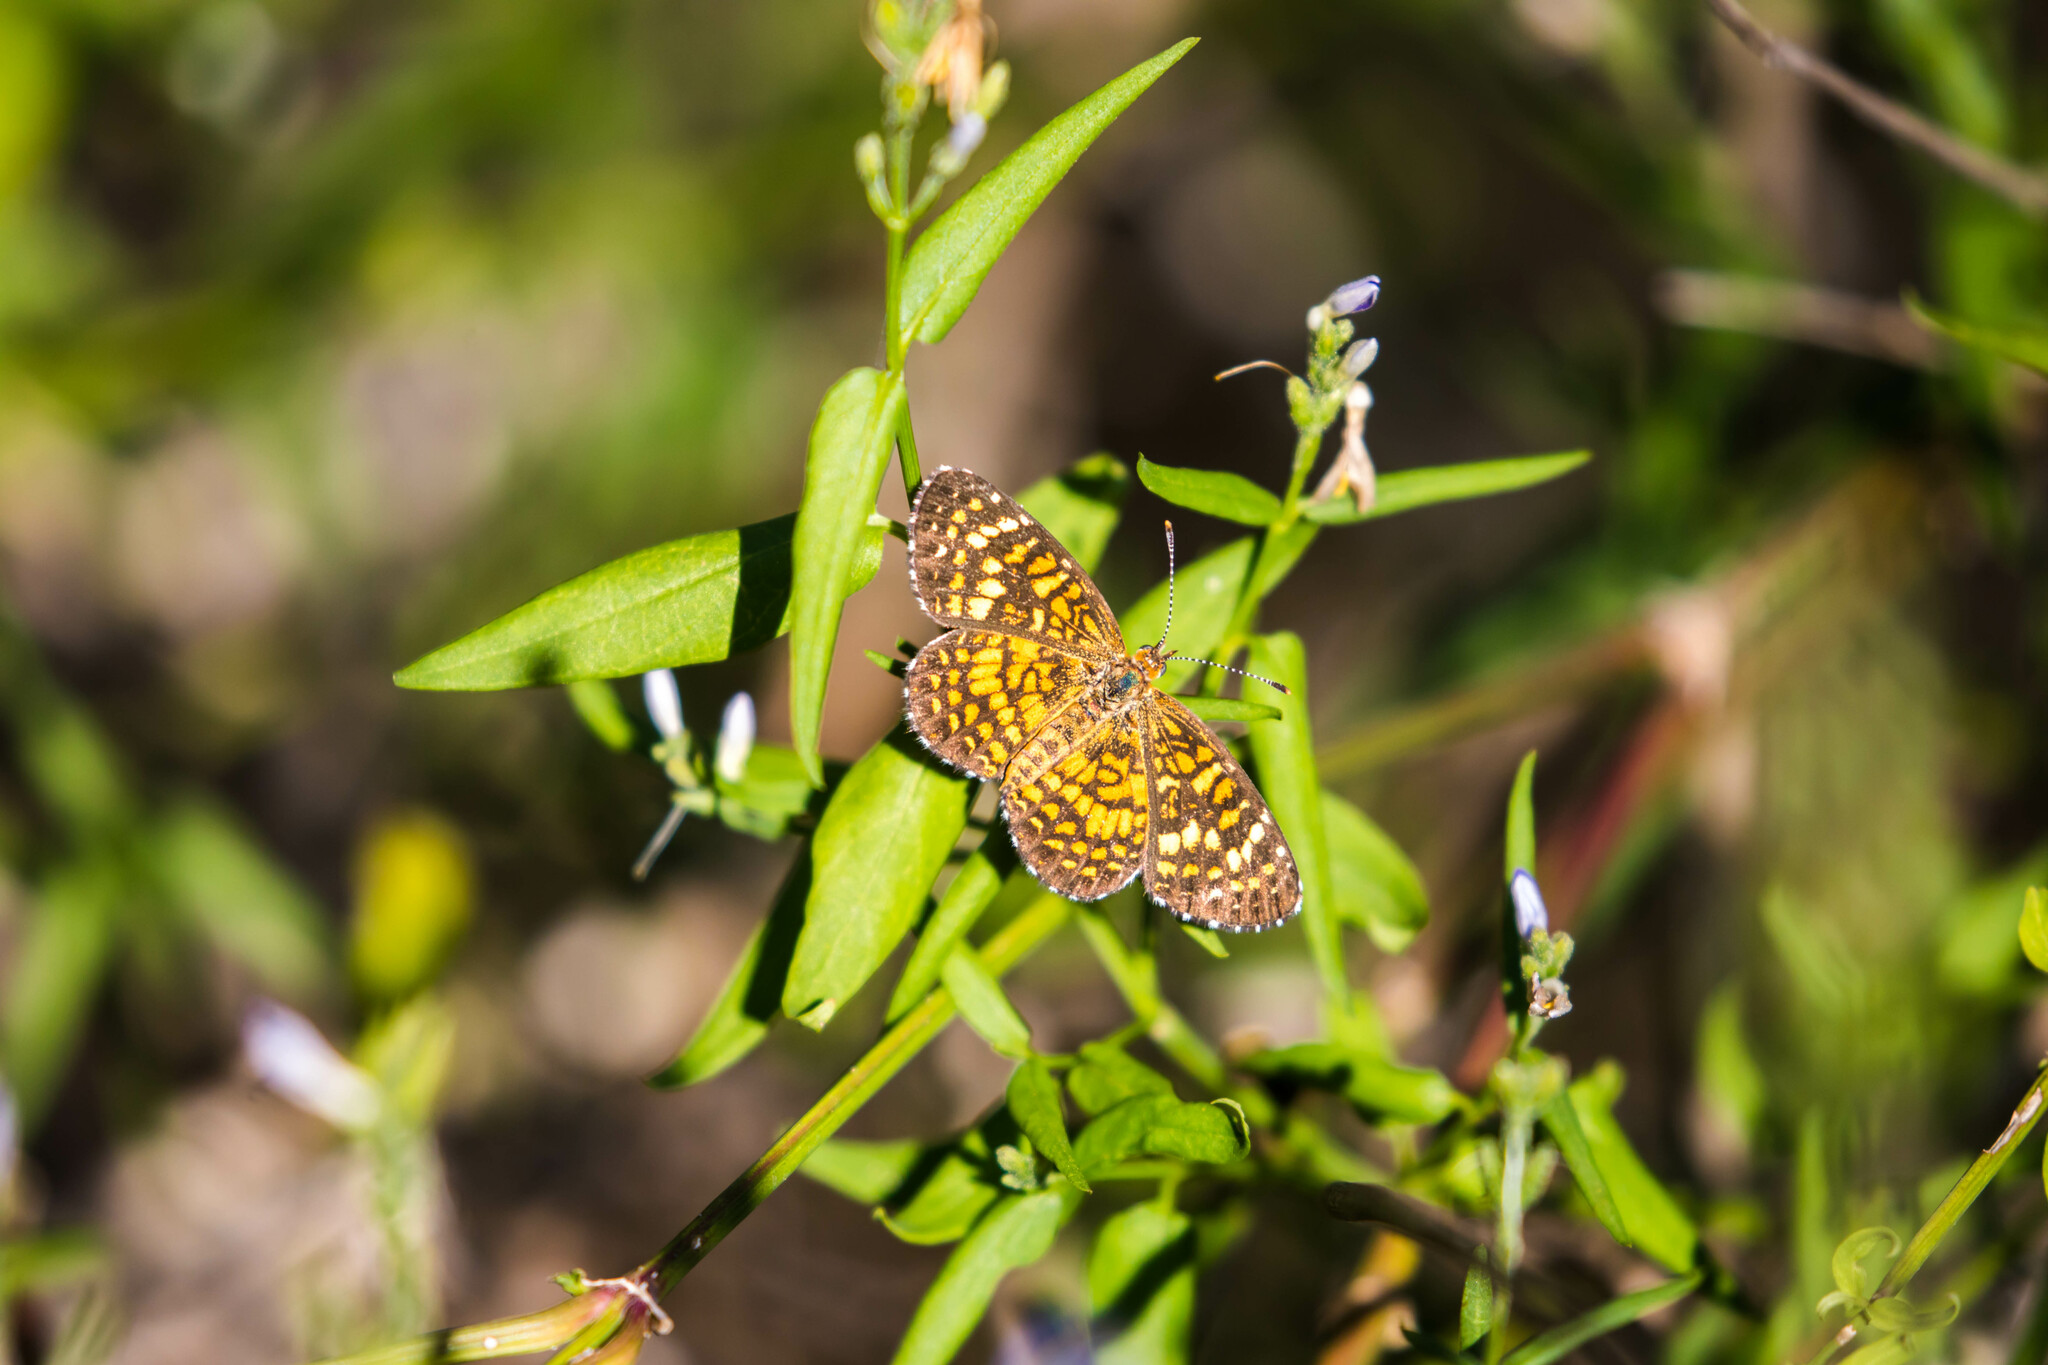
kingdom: Animalia
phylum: Arthropoda
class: Insecta
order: Lepidoptera
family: Nymphalidae
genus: Texola
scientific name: Texola elada
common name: Elada checkerspot
